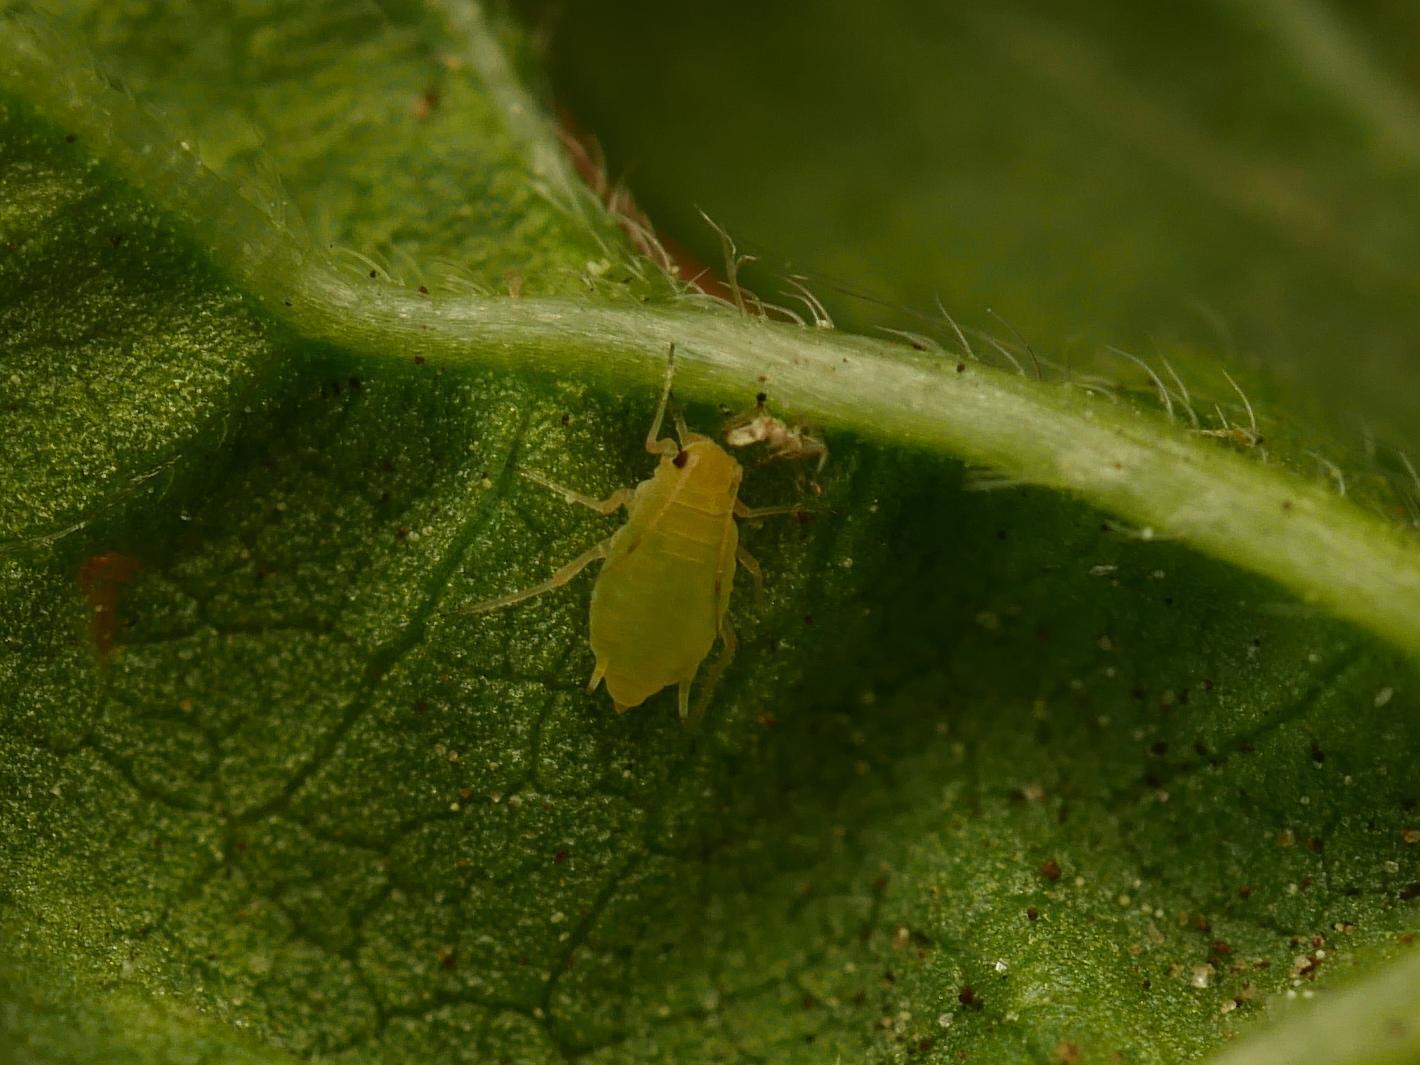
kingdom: Animalia
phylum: Arthropoda
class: Insecta
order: Hemiptera
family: Aphididae
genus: Aphis
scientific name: Aphis umbrella
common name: Umbrella aphid
